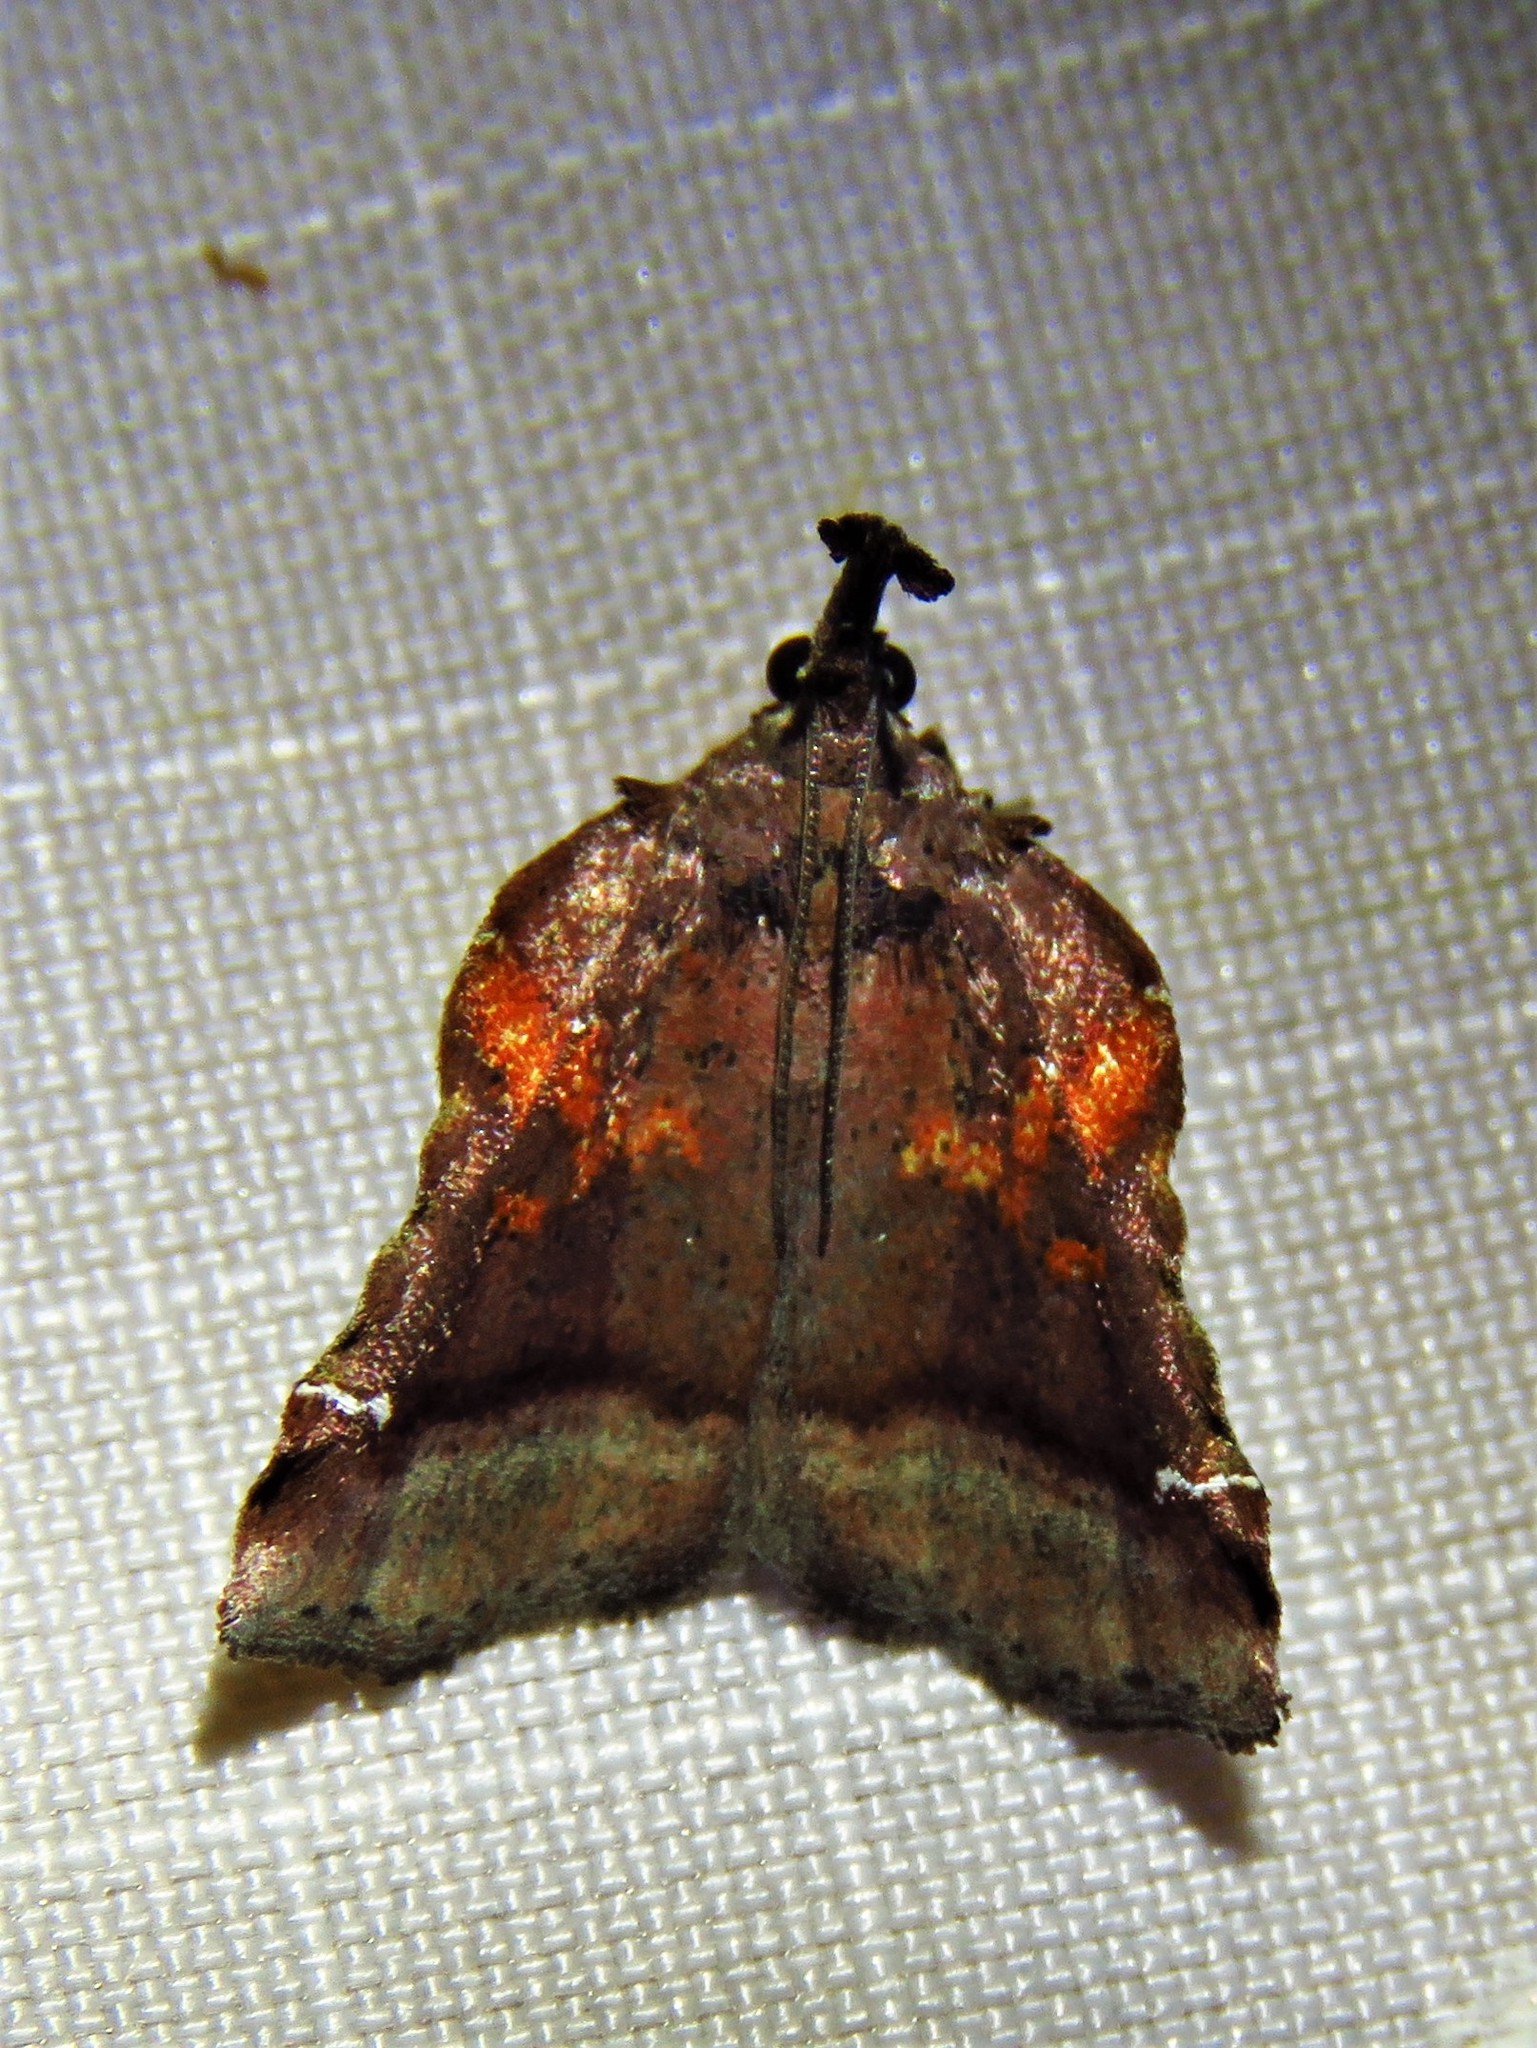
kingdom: Animalia
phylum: Arthropoda
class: Insecta
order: Lepidoptera
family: Pyralidae
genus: Clydonopteron
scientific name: Clydonopteron sacculana
